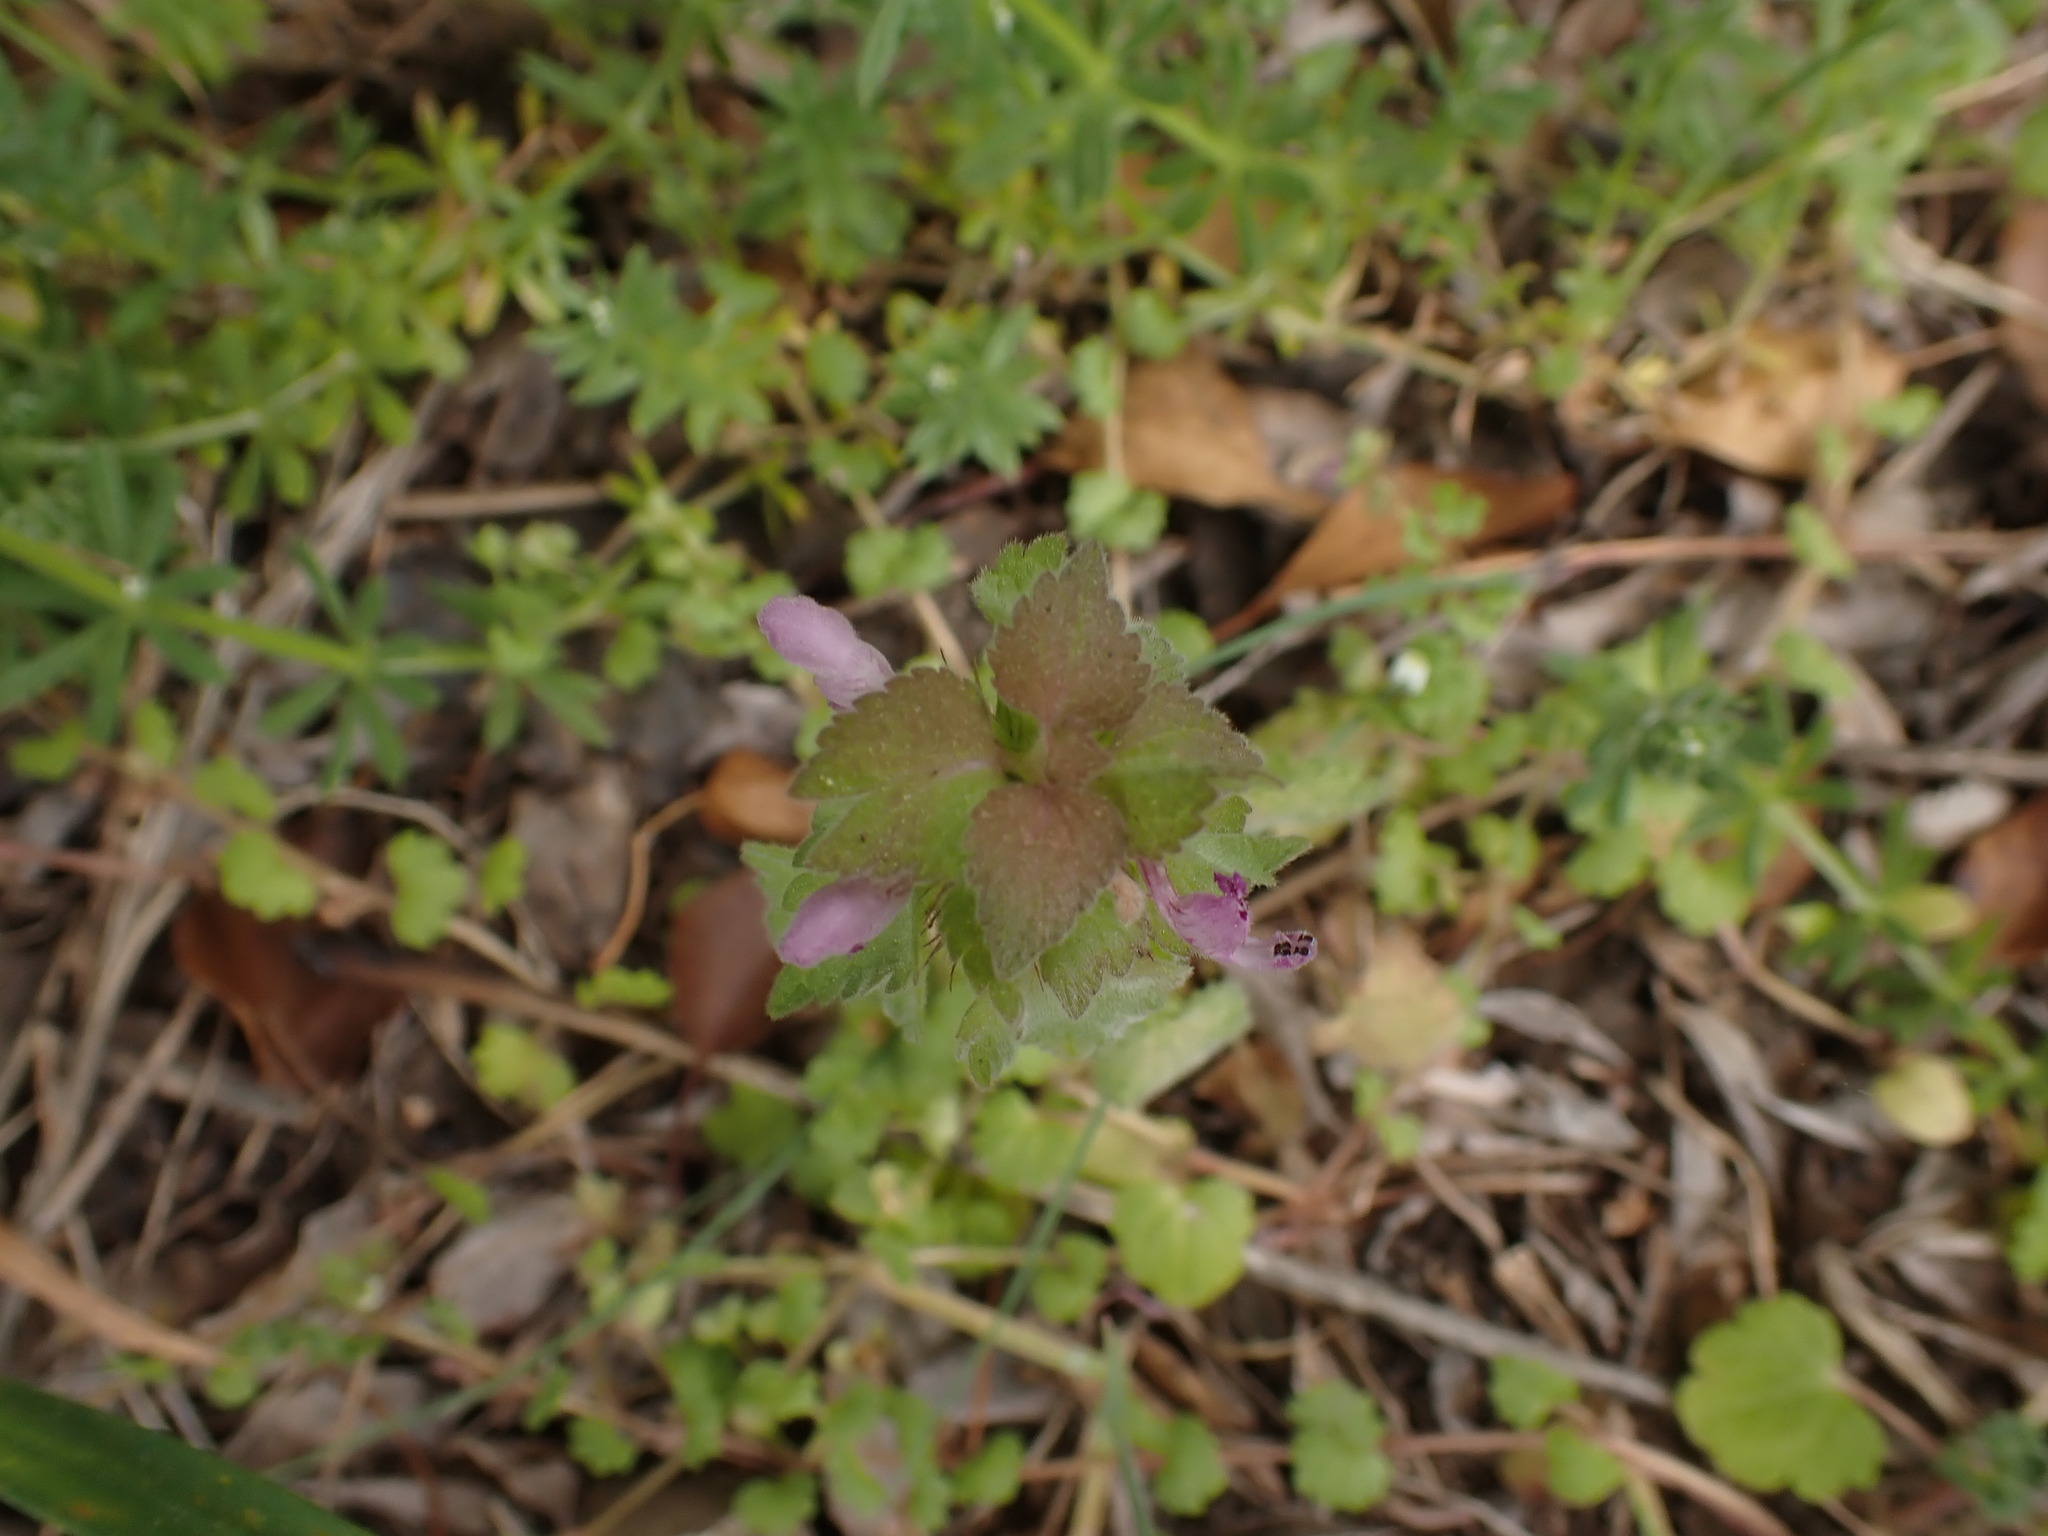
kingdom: Plantae
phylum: Tracheophyta
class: Magnoliopsida
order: Lamiales
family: Lamiaceae
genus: Lamium
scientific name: Lamium purpureum
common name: Red dead-nettle
